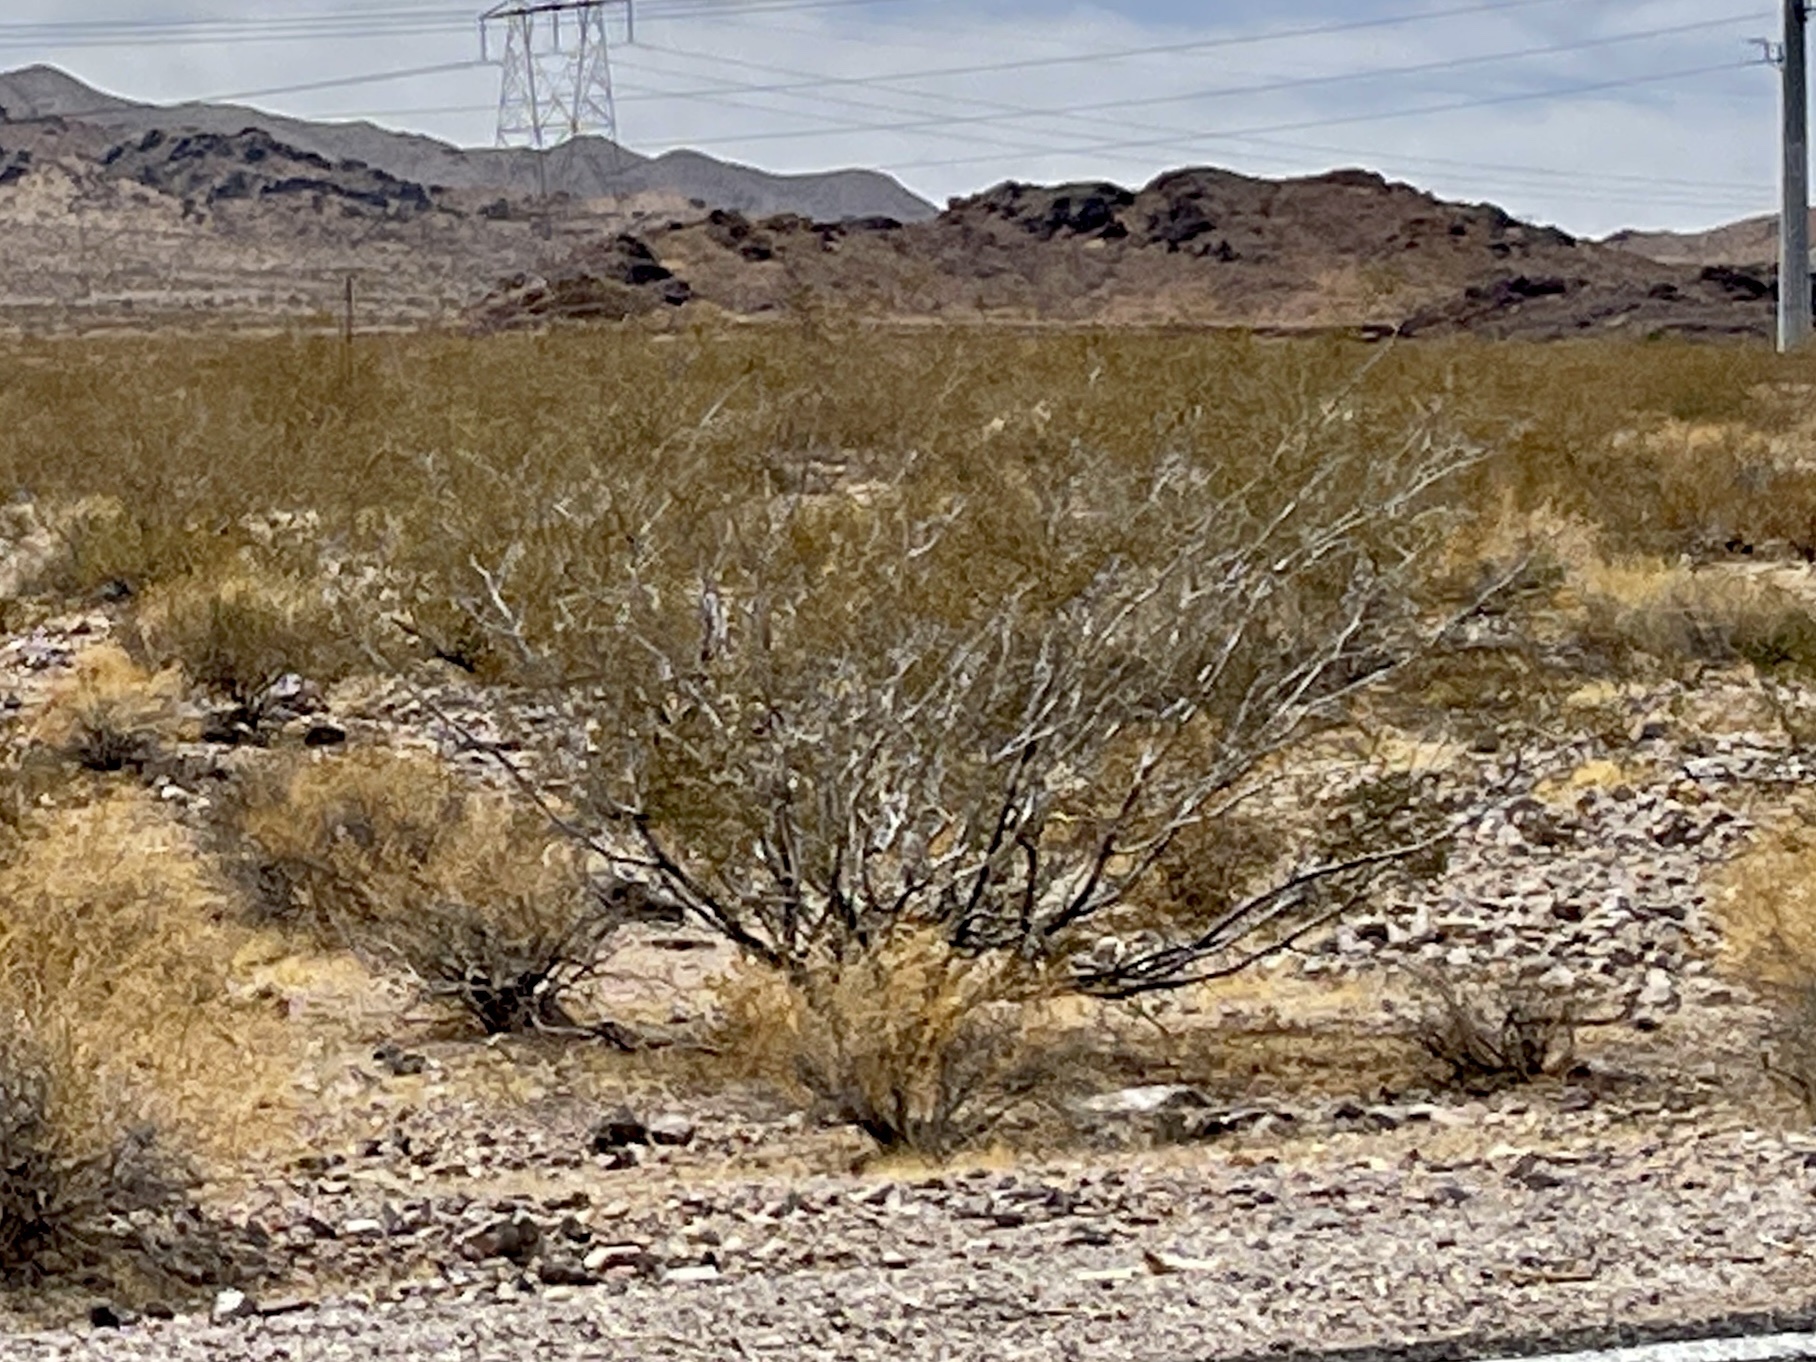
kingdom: Plantae
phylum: Tracheophyta
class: Magnoliopsida
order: Zygophyllales
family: Zygophyllaceae
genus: Larrea
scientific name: Larrea tridentata
